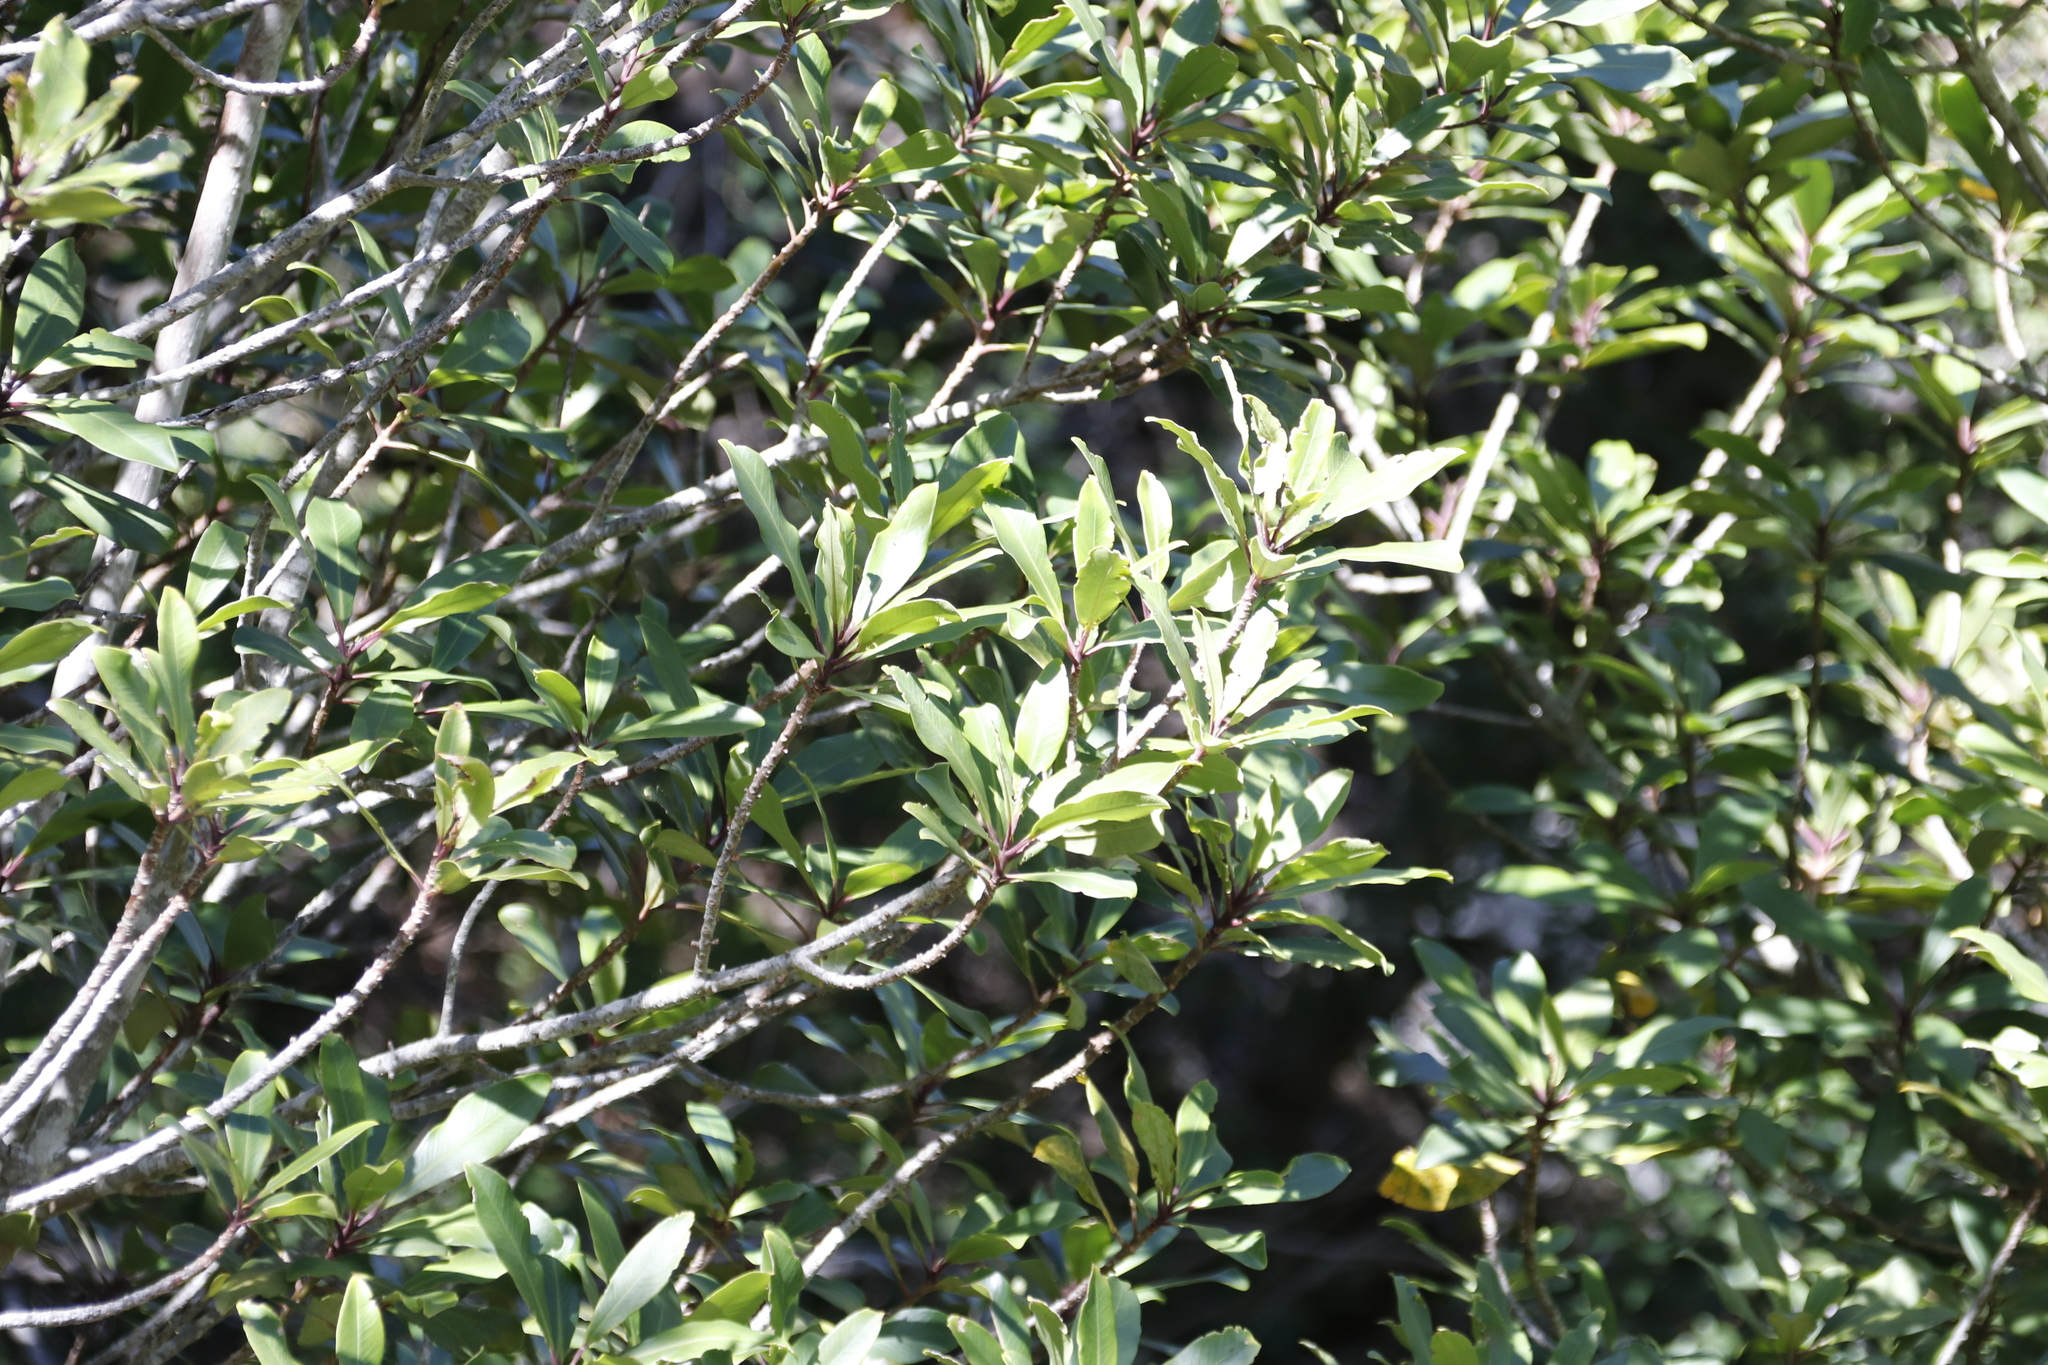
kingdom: Plantae
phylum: Tracheophyta
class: Magnoliopsida
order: Ericales
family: Primulaceae
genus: Myrsine
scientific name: Myrsine melanophloeos
